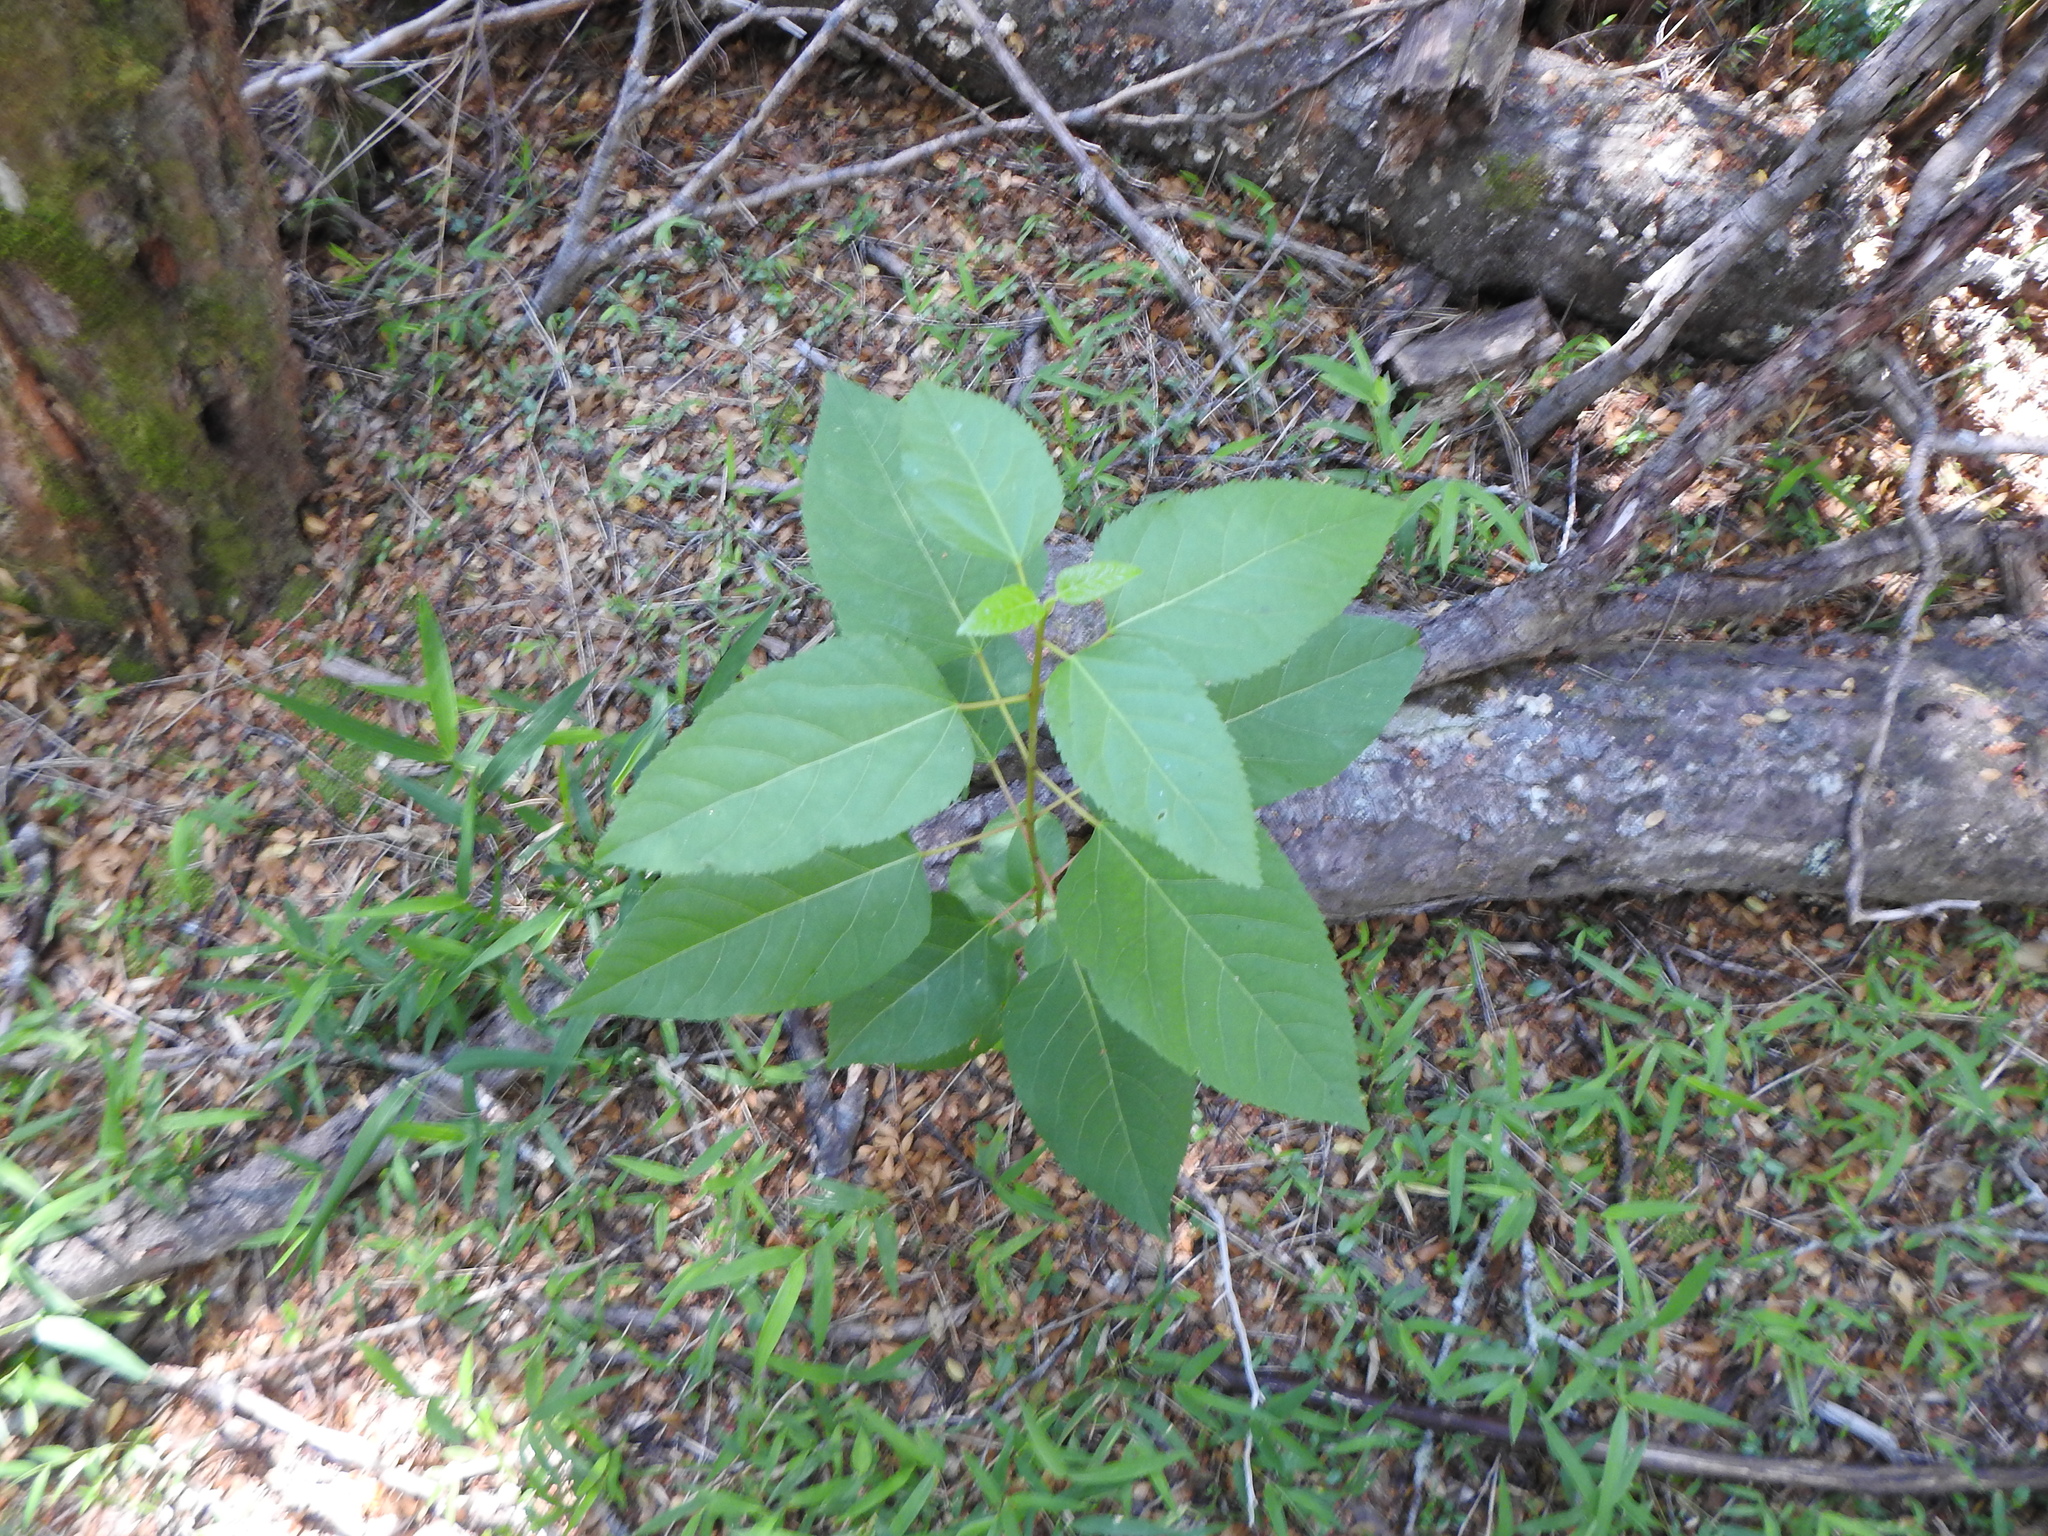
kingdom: Plantae
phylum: Tracheophyta
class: Magnoliopsida
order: Oxalidales
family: Elaeocarpaceae
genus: Aristotelia
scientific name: Aristotelia chilensis
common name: Maquei
